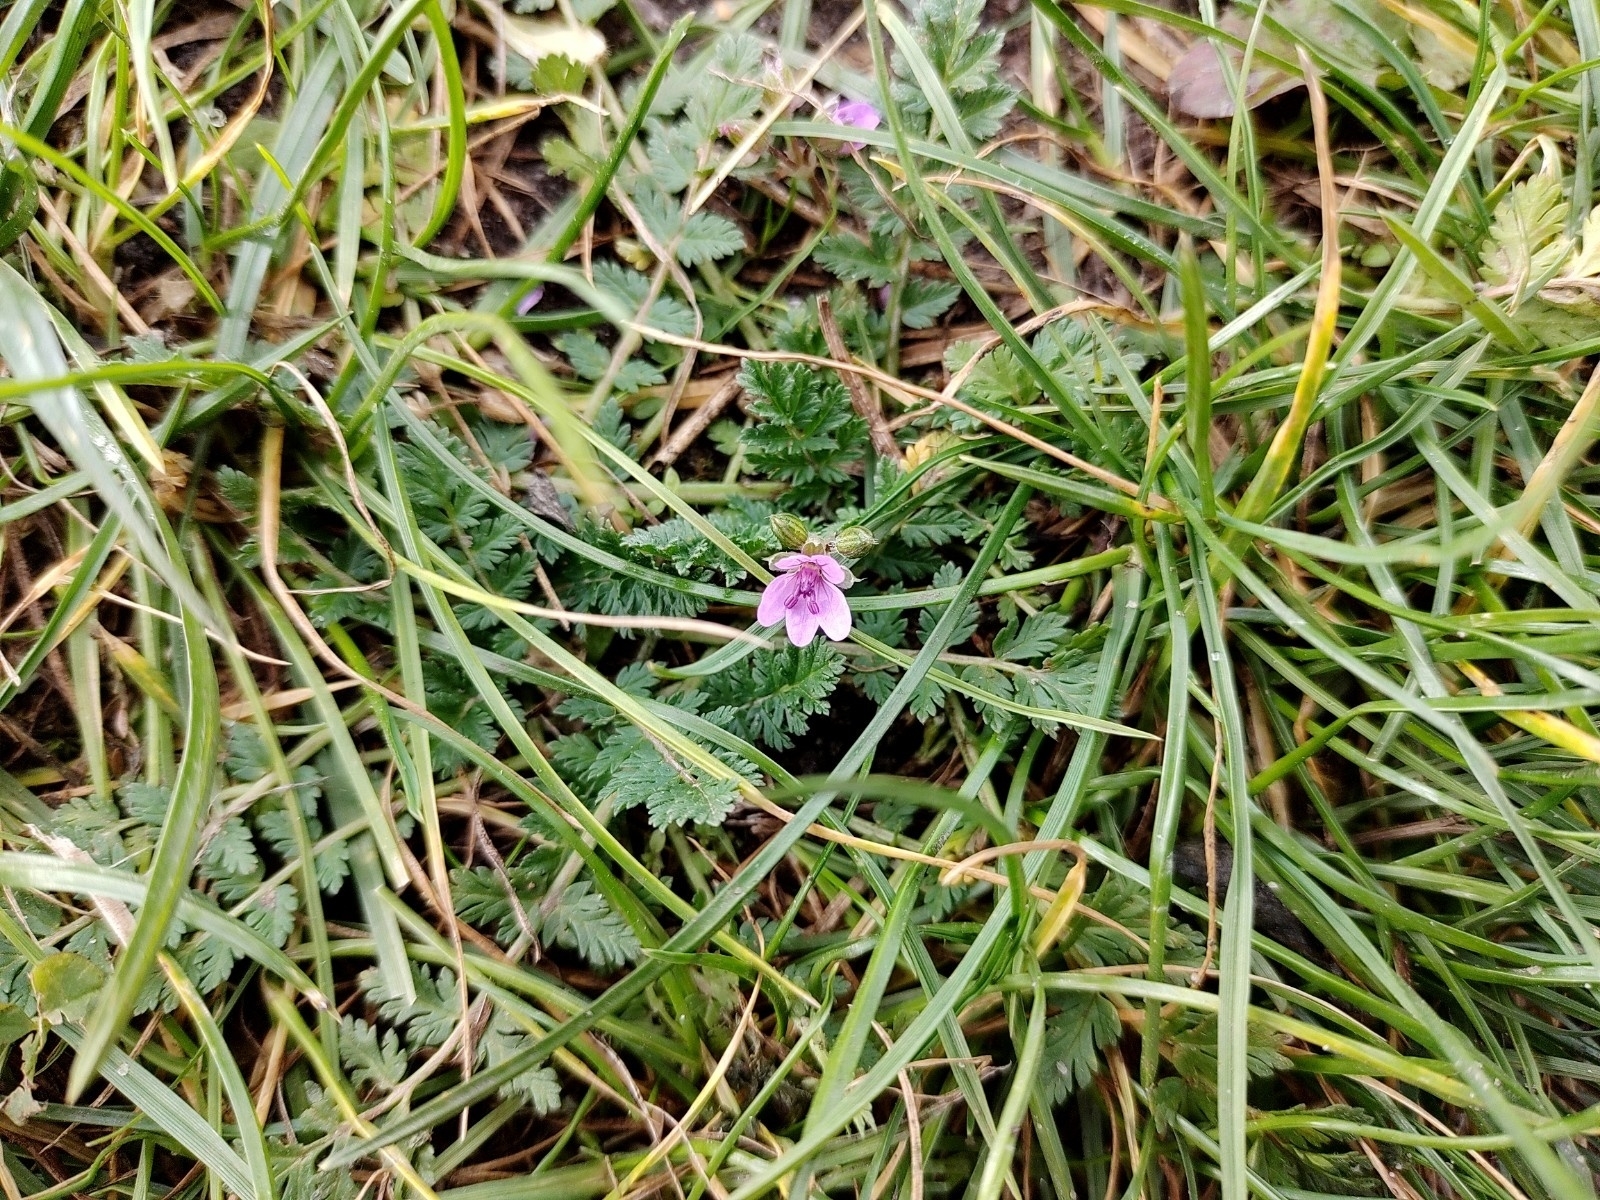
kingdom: Plantae
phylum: Tracheophyta
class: Magnoliopsida
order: Geraniales
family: Geraniaceae
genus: Erodium
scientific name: Erodium cicutarium
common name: Common stork's-bill
